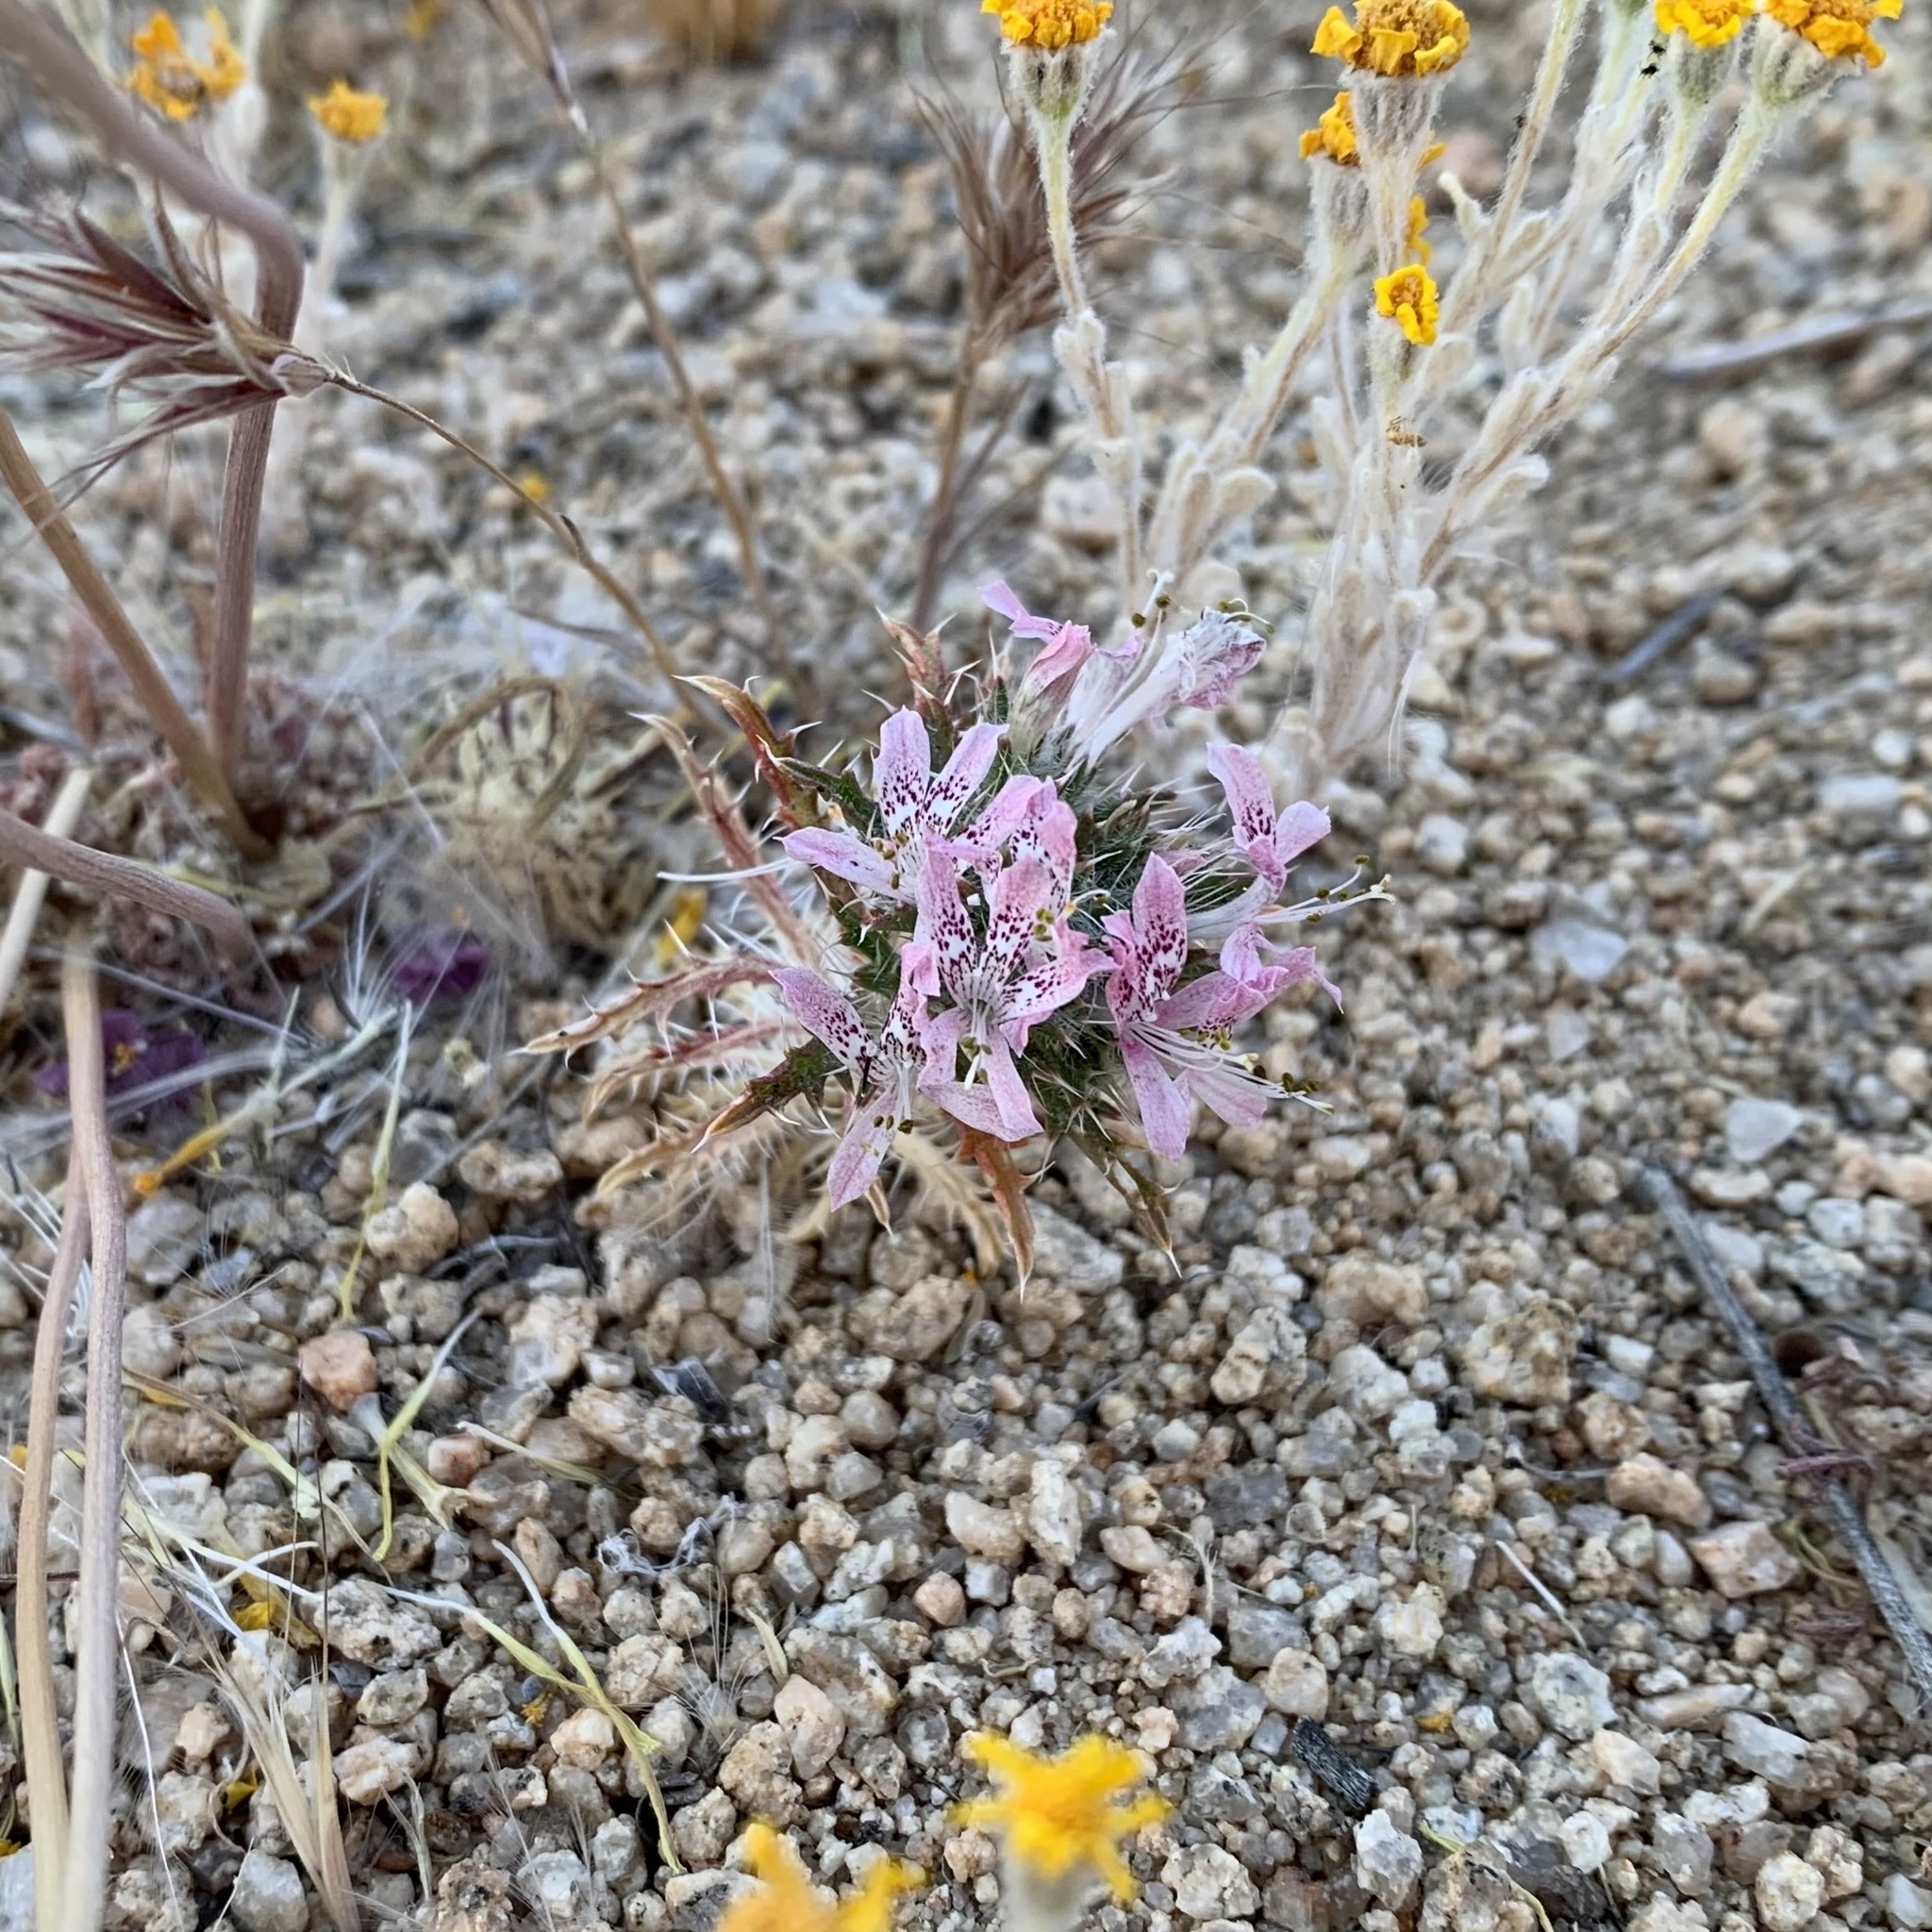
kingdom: Plantae
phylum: Tracheophyta
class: Magnoliopsida
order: Ericales
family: Polemoniaceae
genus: Loeseliastrum
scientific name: Loeseliastrum matthewsii
